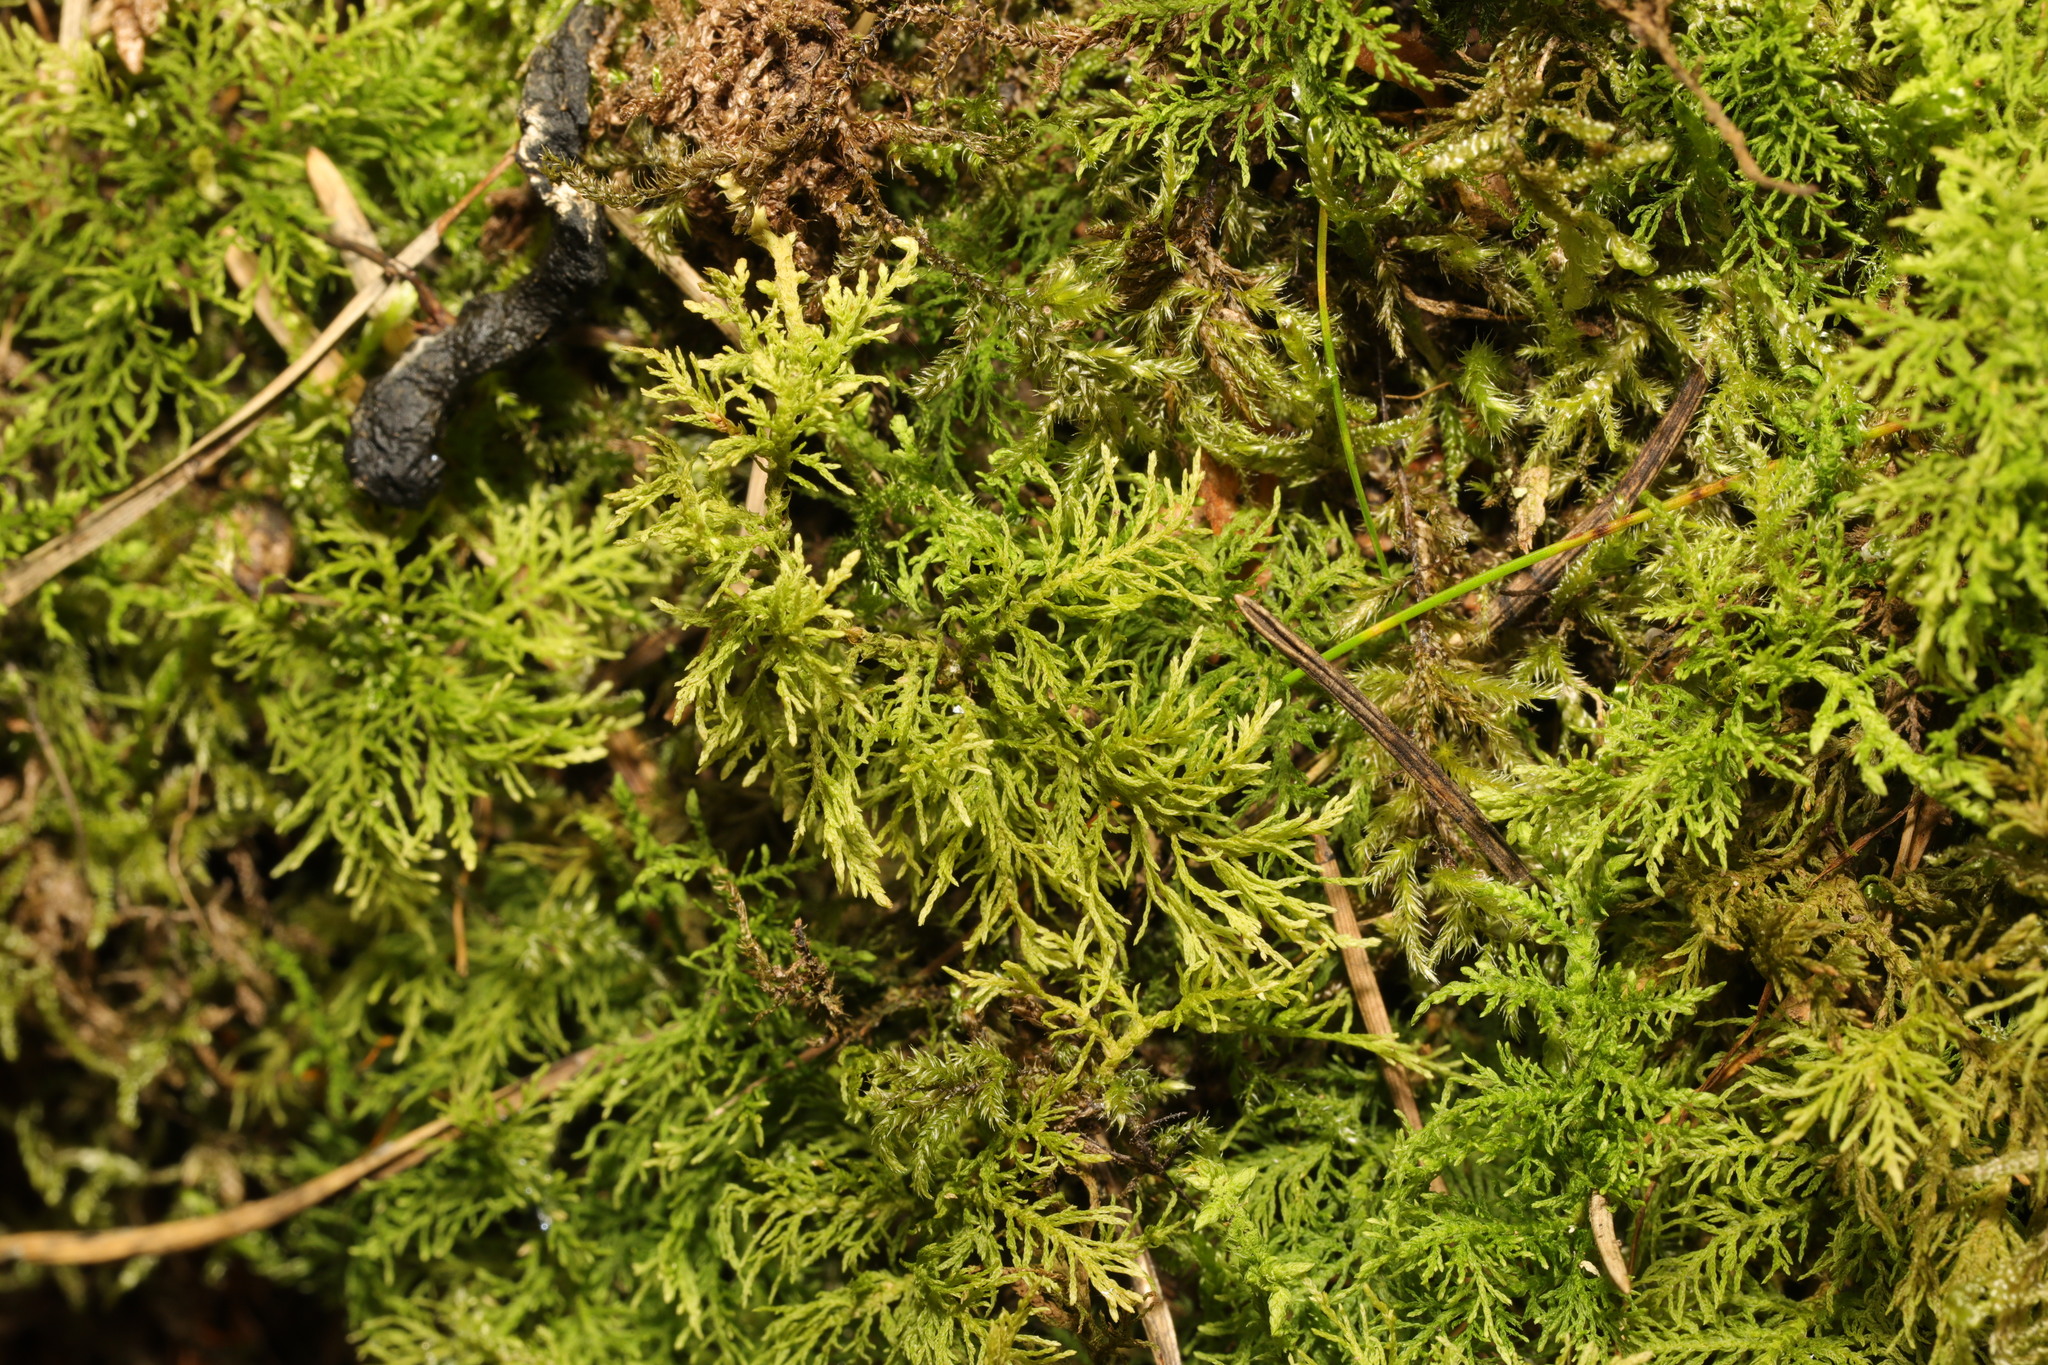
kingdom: Plantae
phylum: Bryophyta
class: Bryopsida
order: Hypnales
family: Thuidiaceae
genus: Thuidium
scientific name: Thuidium tamariscinum
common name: Common tamarisk-moss
